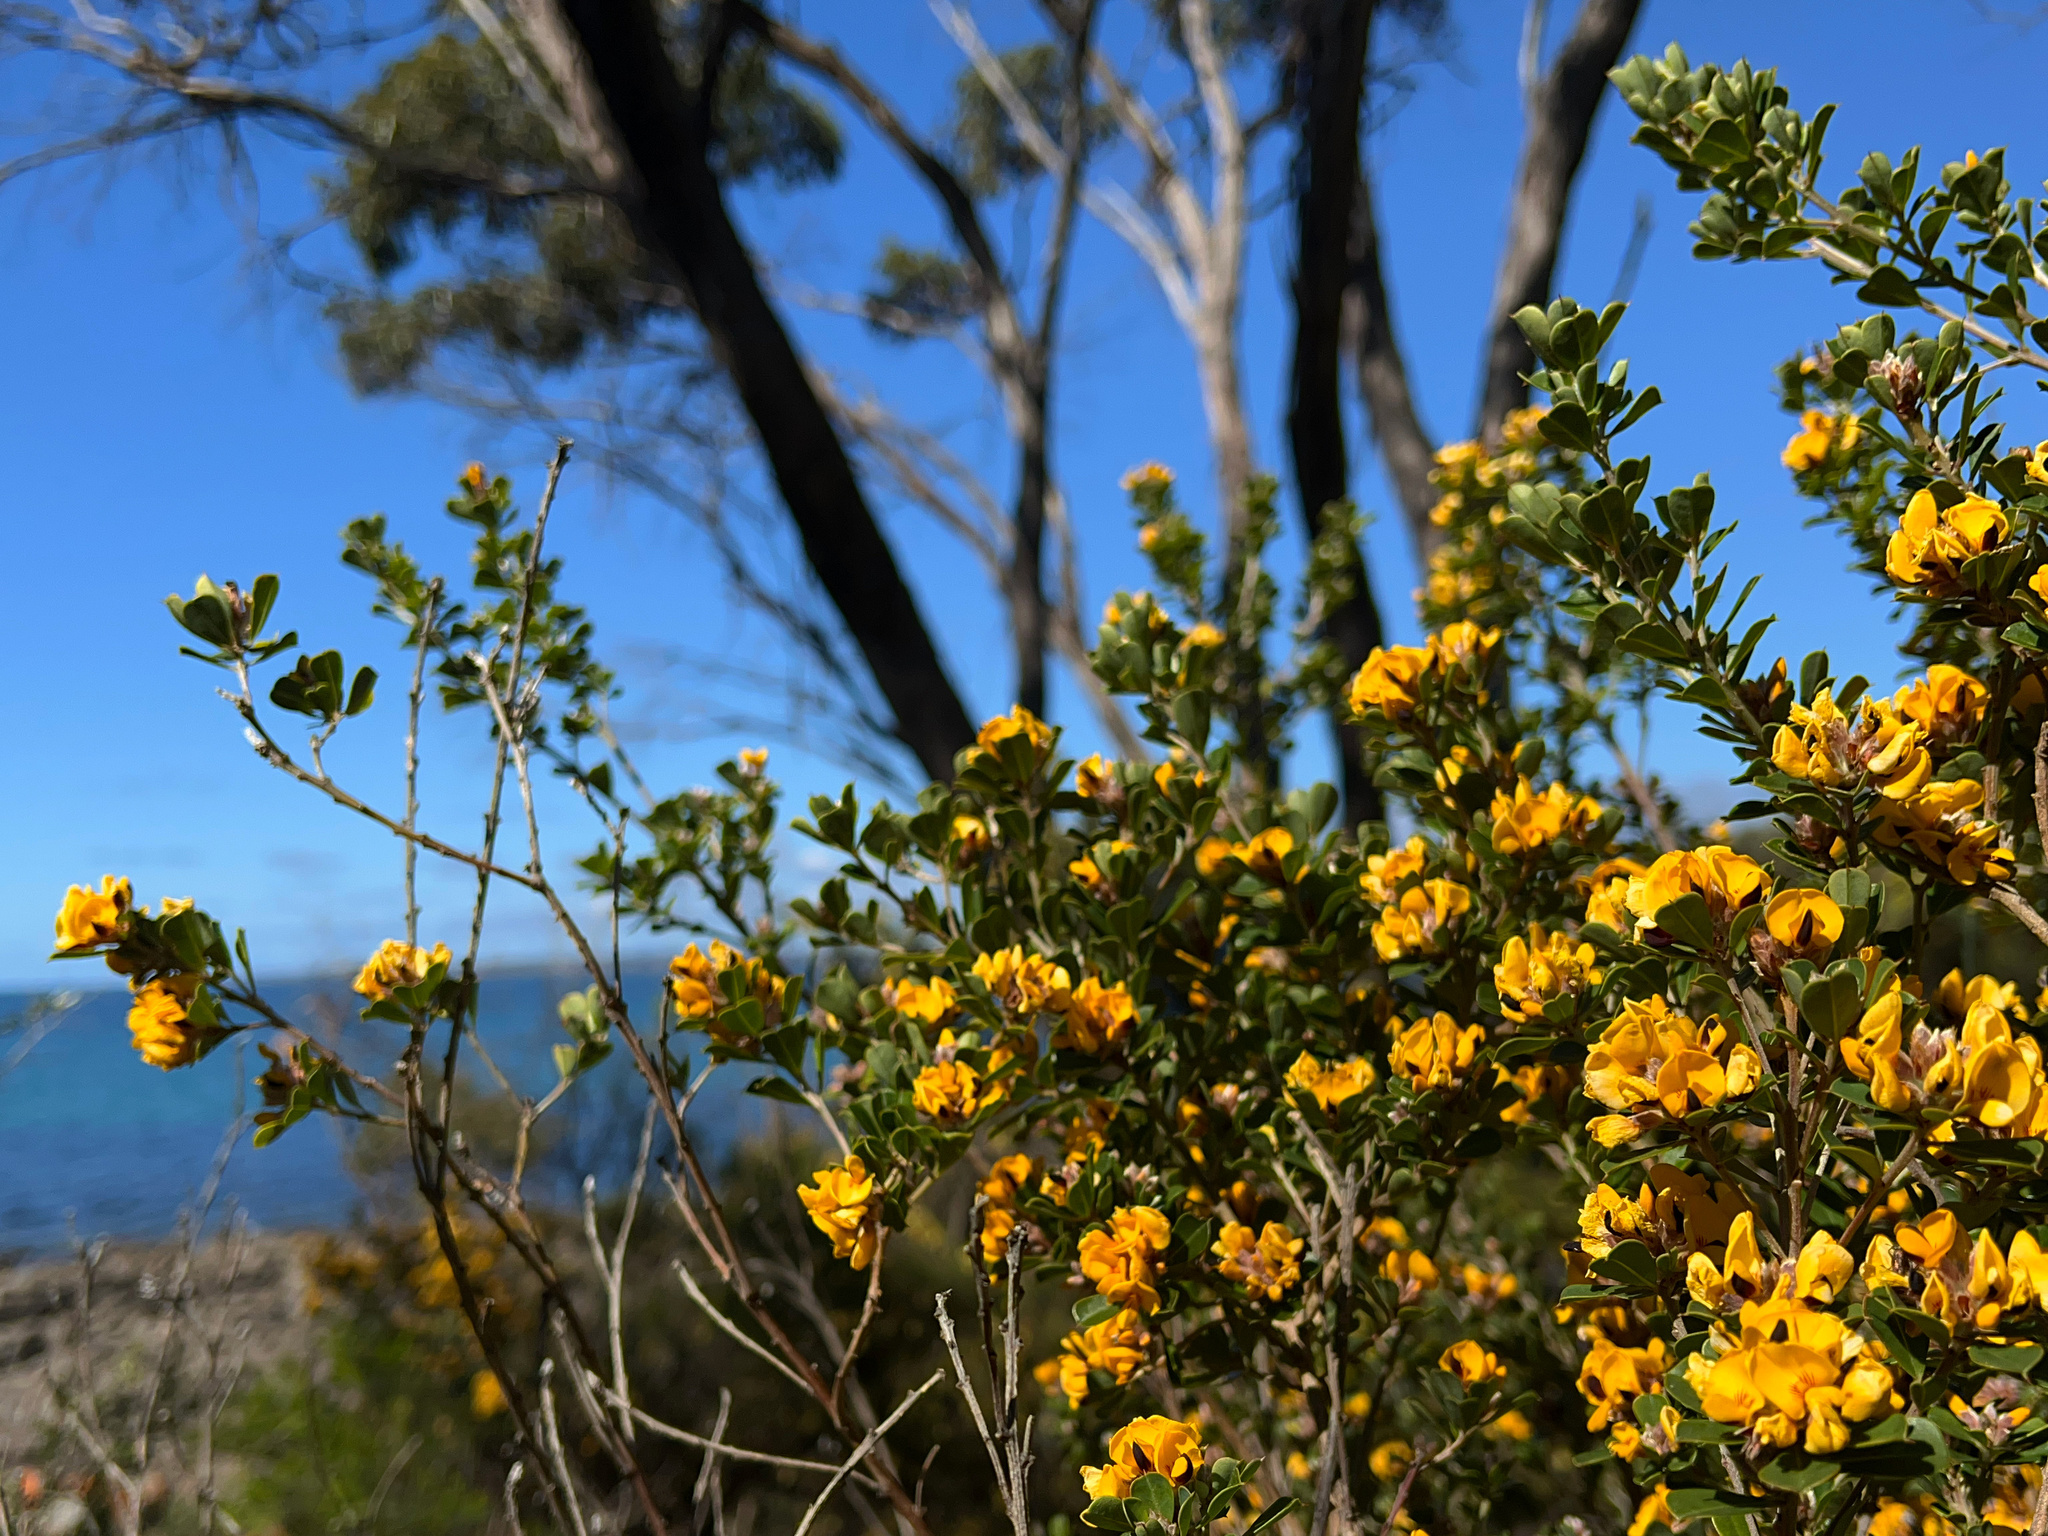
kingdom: Plantae
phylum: Tracheophyta
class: Magnoliopsida
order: Fabales
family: Fabaceae
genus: Pultenaea
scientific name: Pultenaea daphnoides
